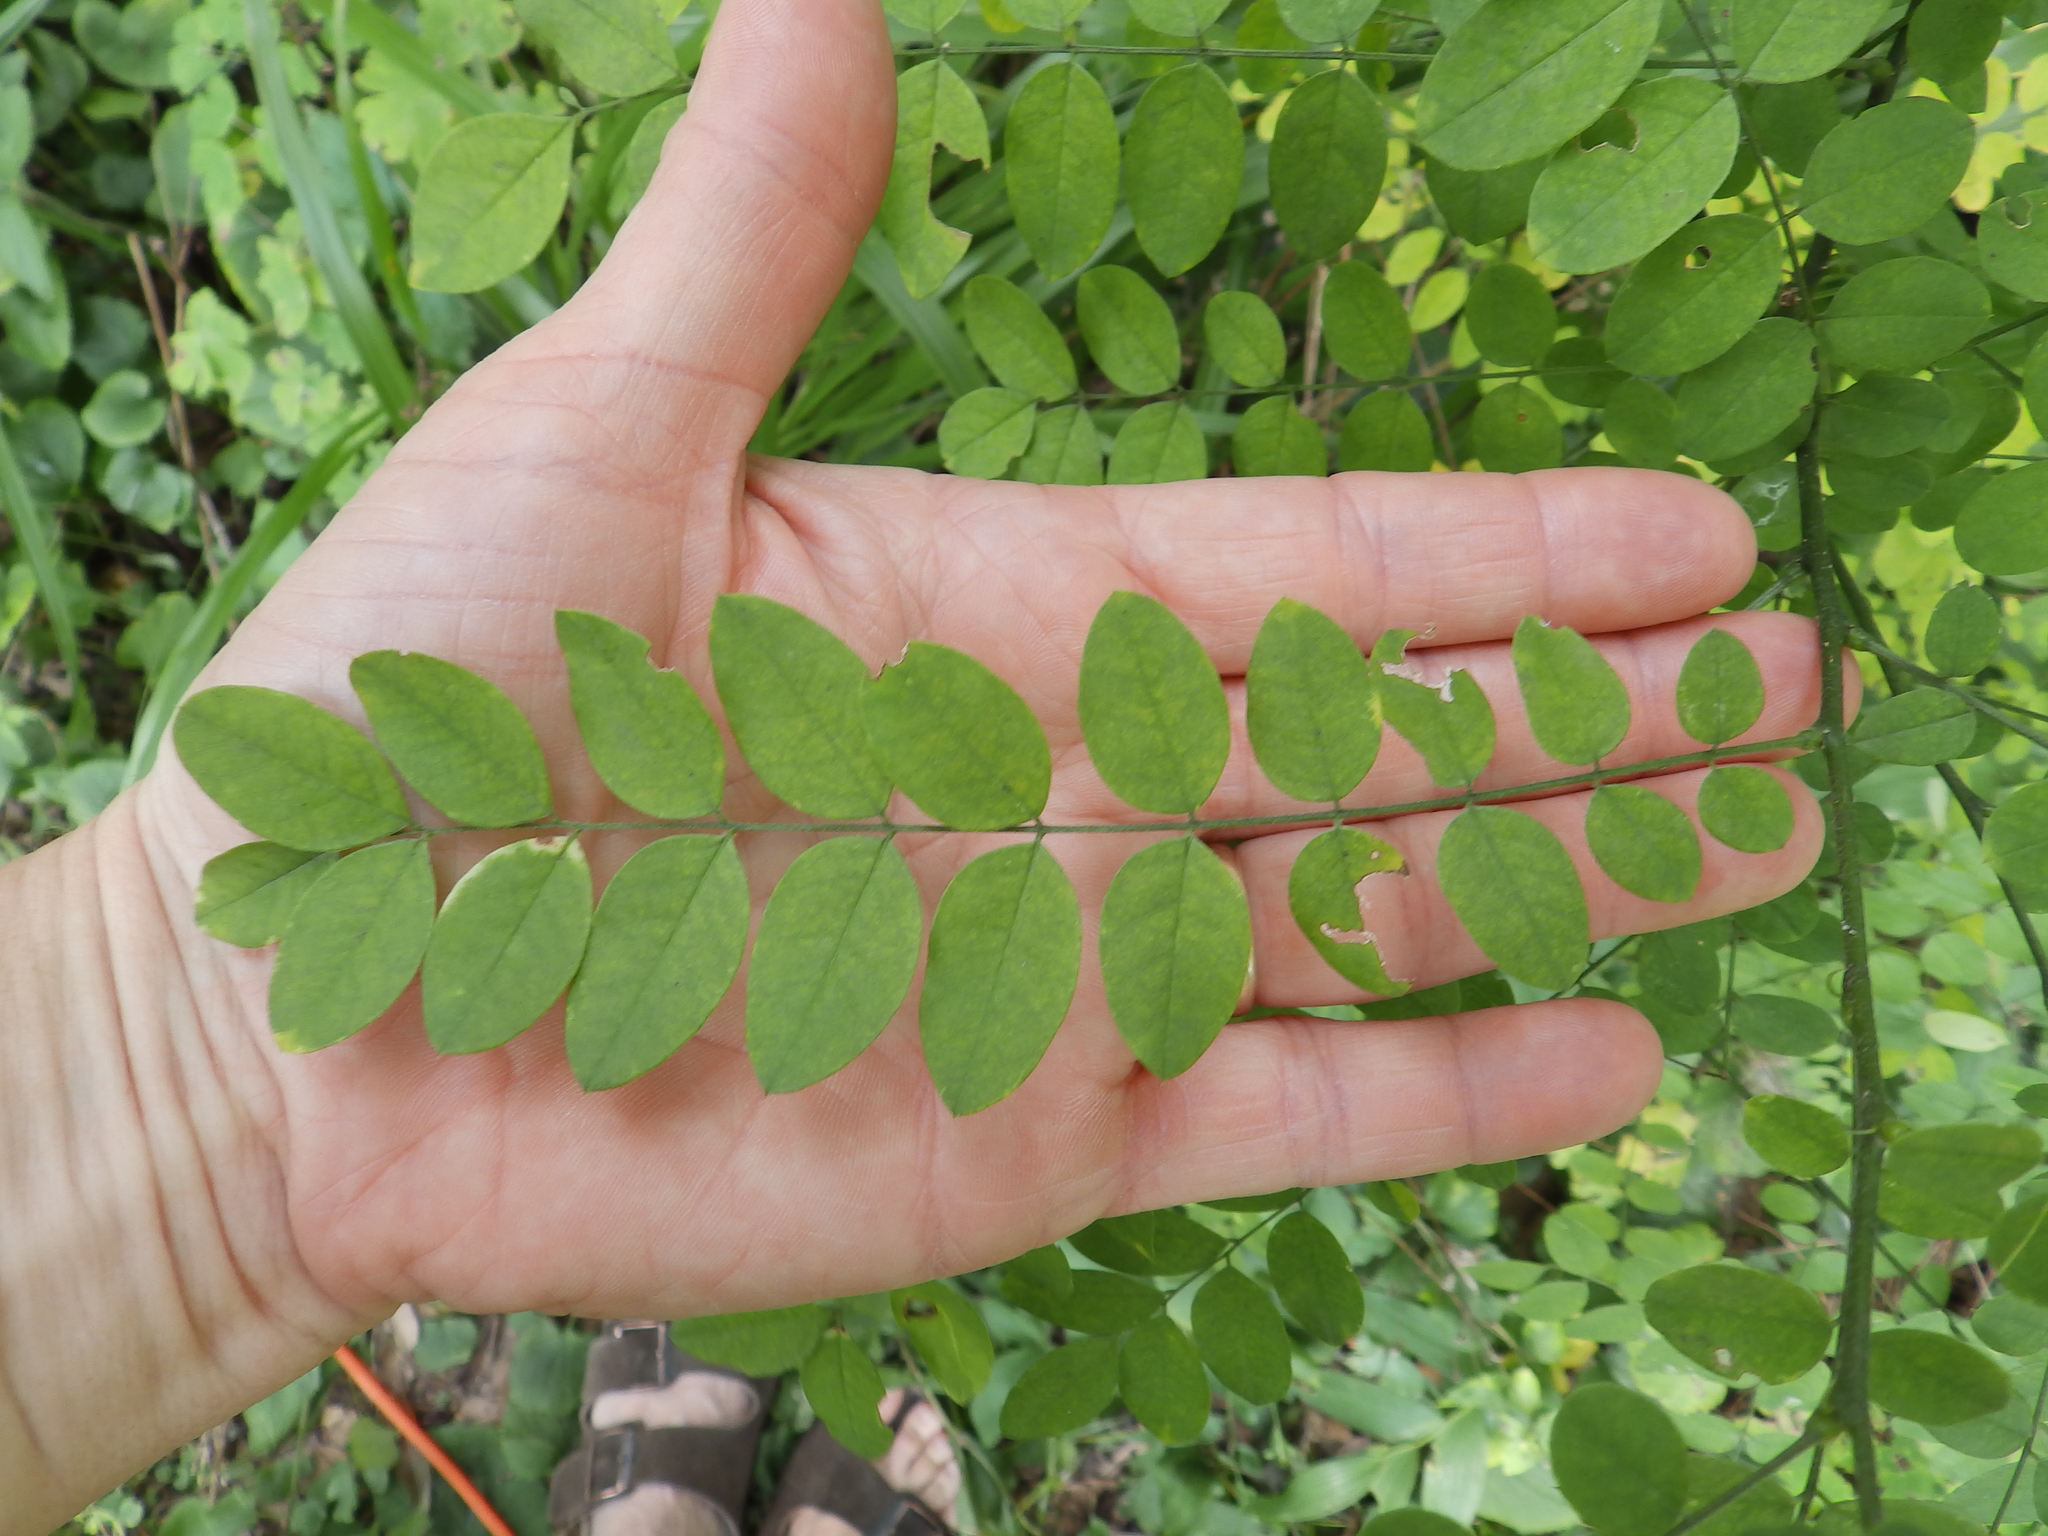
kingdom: Plantae
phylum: Tracheophyta
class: Magnoliopsida
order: Fabales
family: Fabaceae
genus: Robinia
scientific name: Robinia pseudoacacia
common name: Black locust
